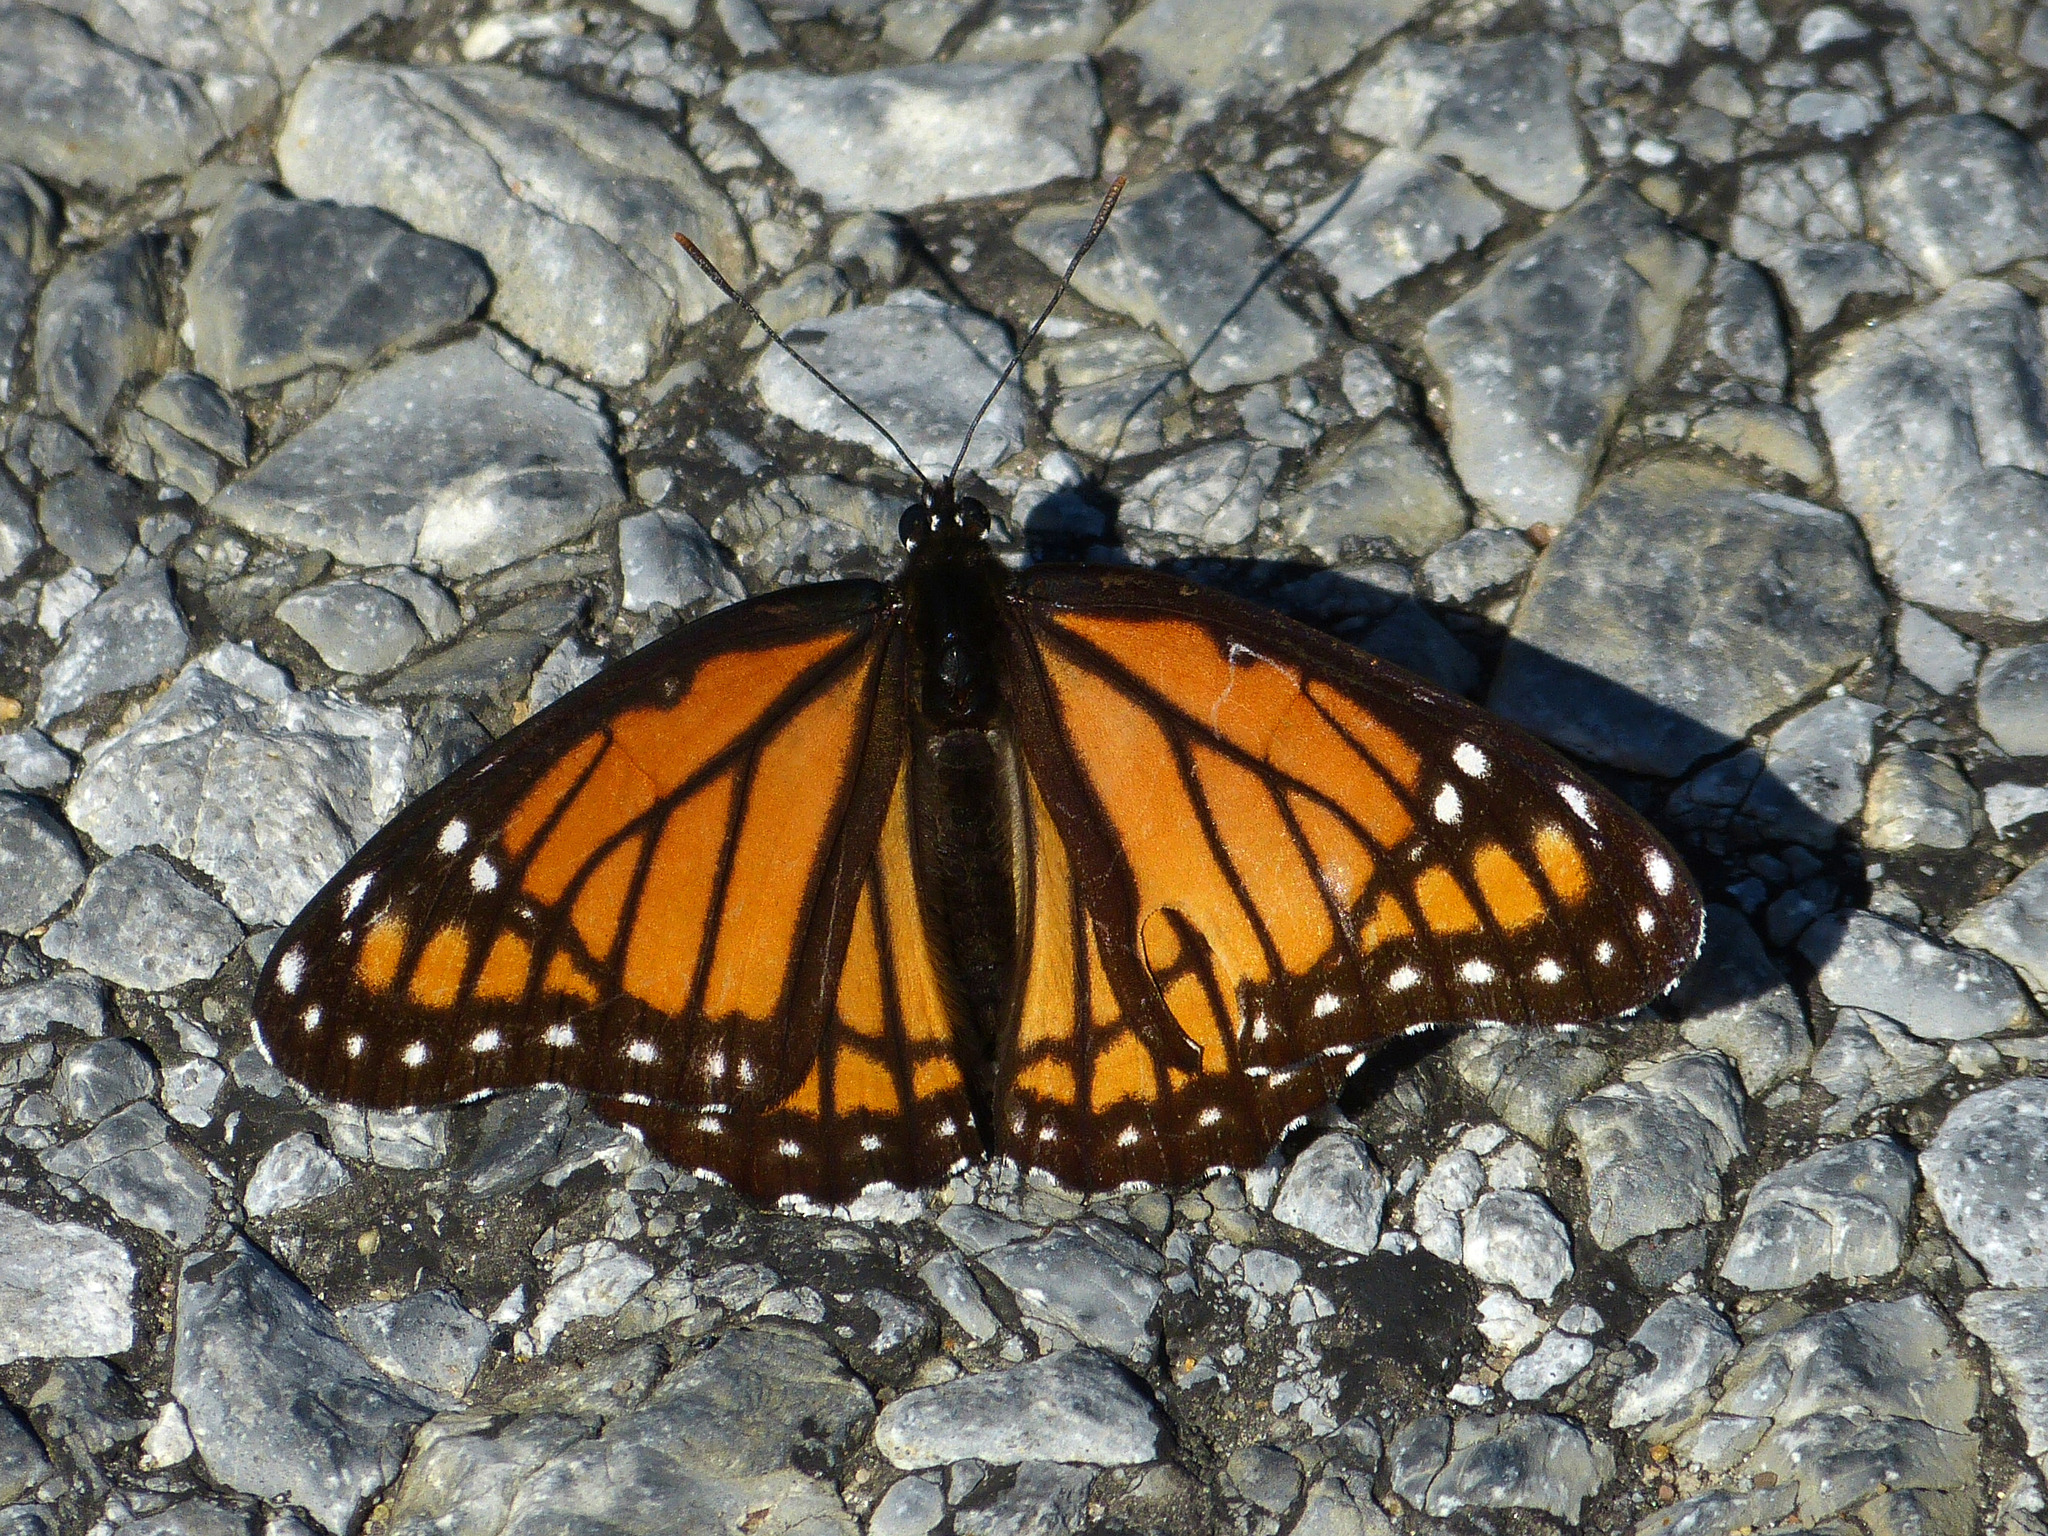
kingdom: Animalia
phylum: Arthropoda
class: Insecta
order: Lepidoptera
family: Nymphalidae
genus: Limenitis
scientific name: Limenitis archippus
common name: Viceroy
